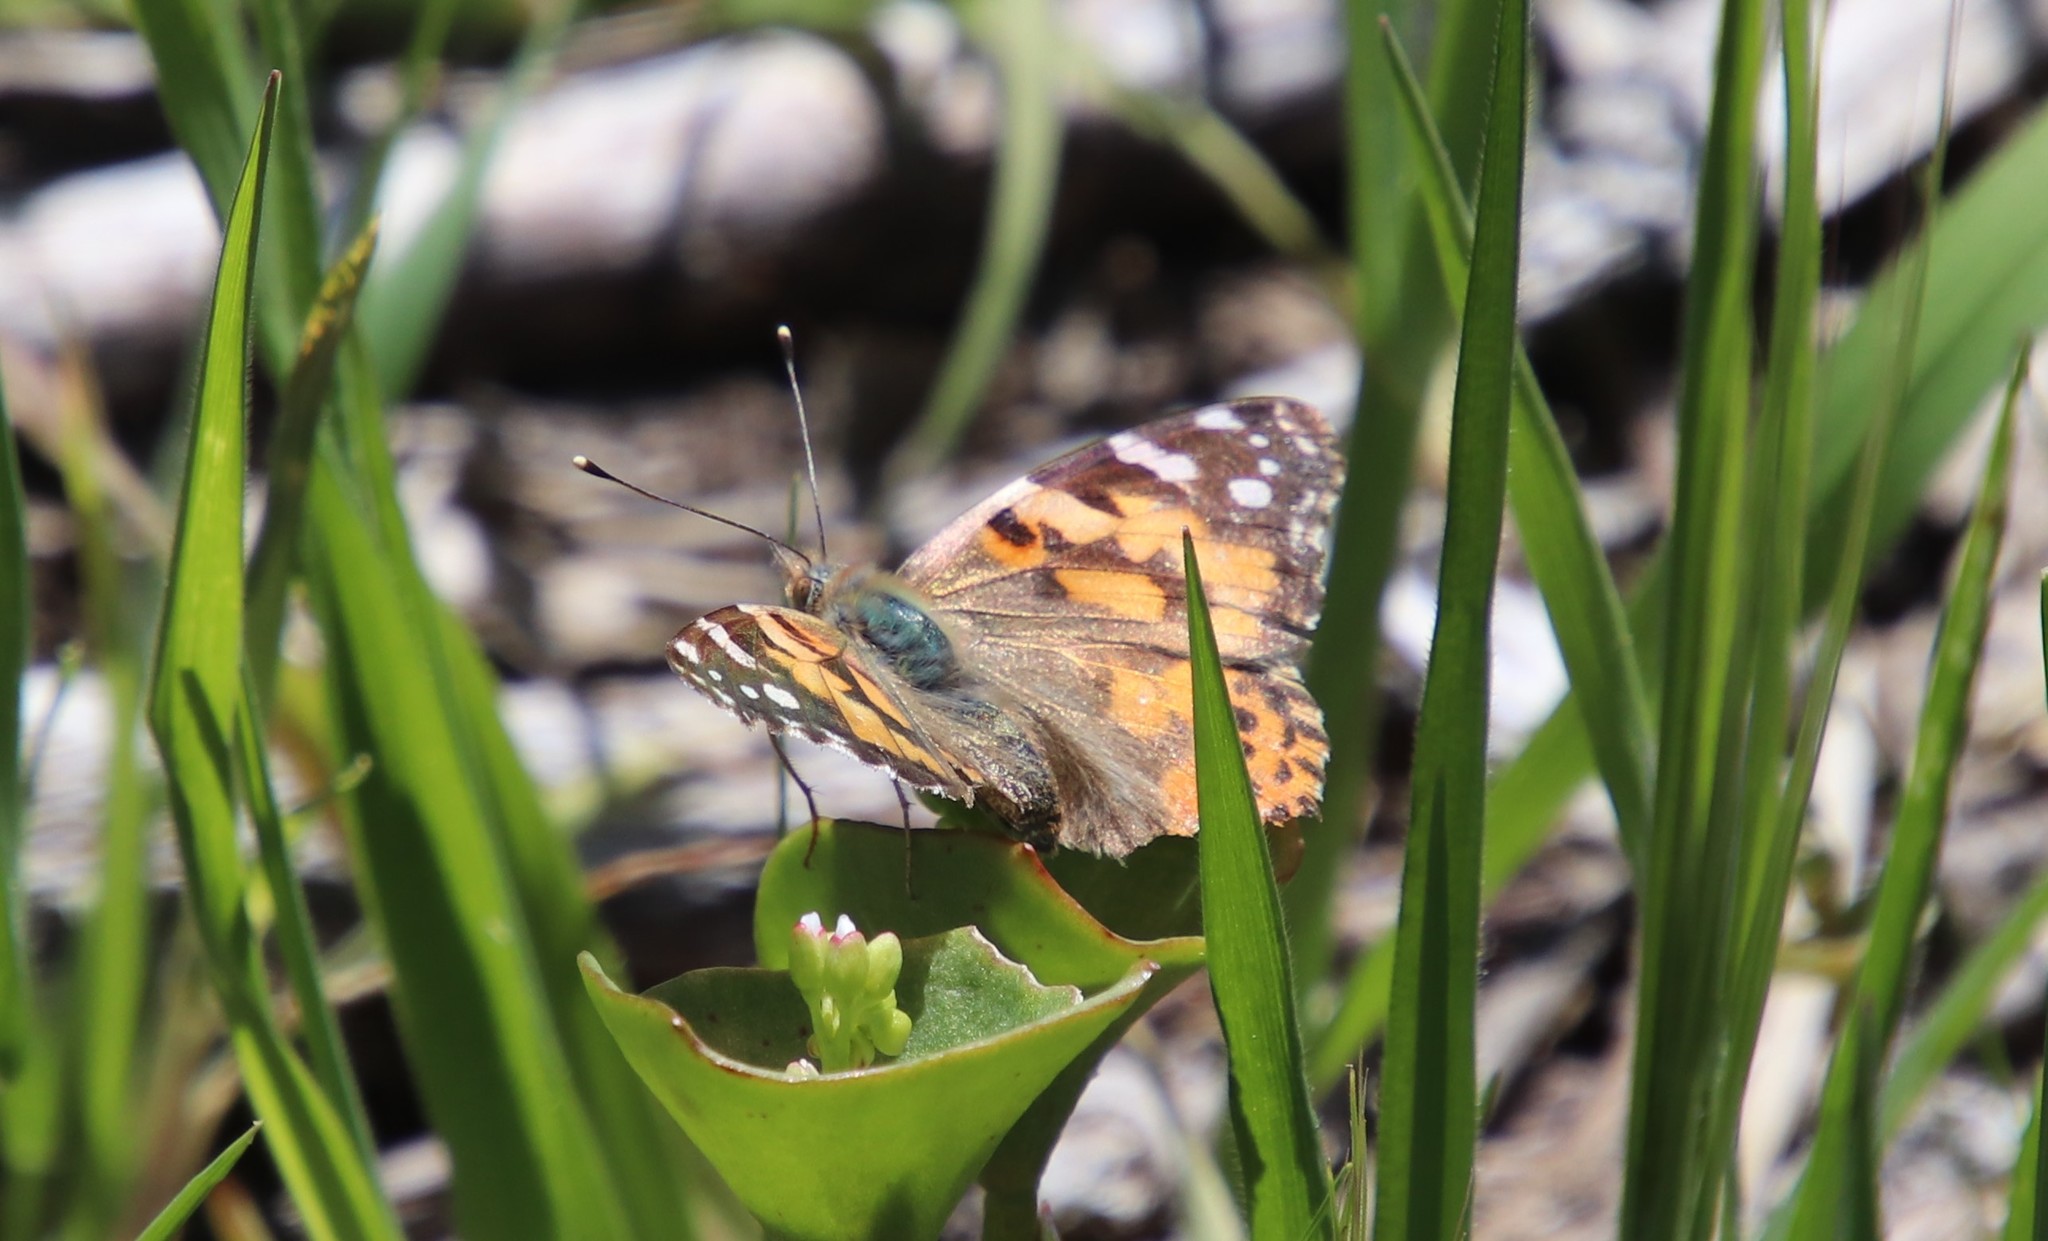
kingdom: Animalia
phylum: Arthropoda
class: Insecta
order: Lepidoptera
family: Nymphalidae
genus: Vanessa
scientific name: Vanessa cardui
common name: Painted lady
